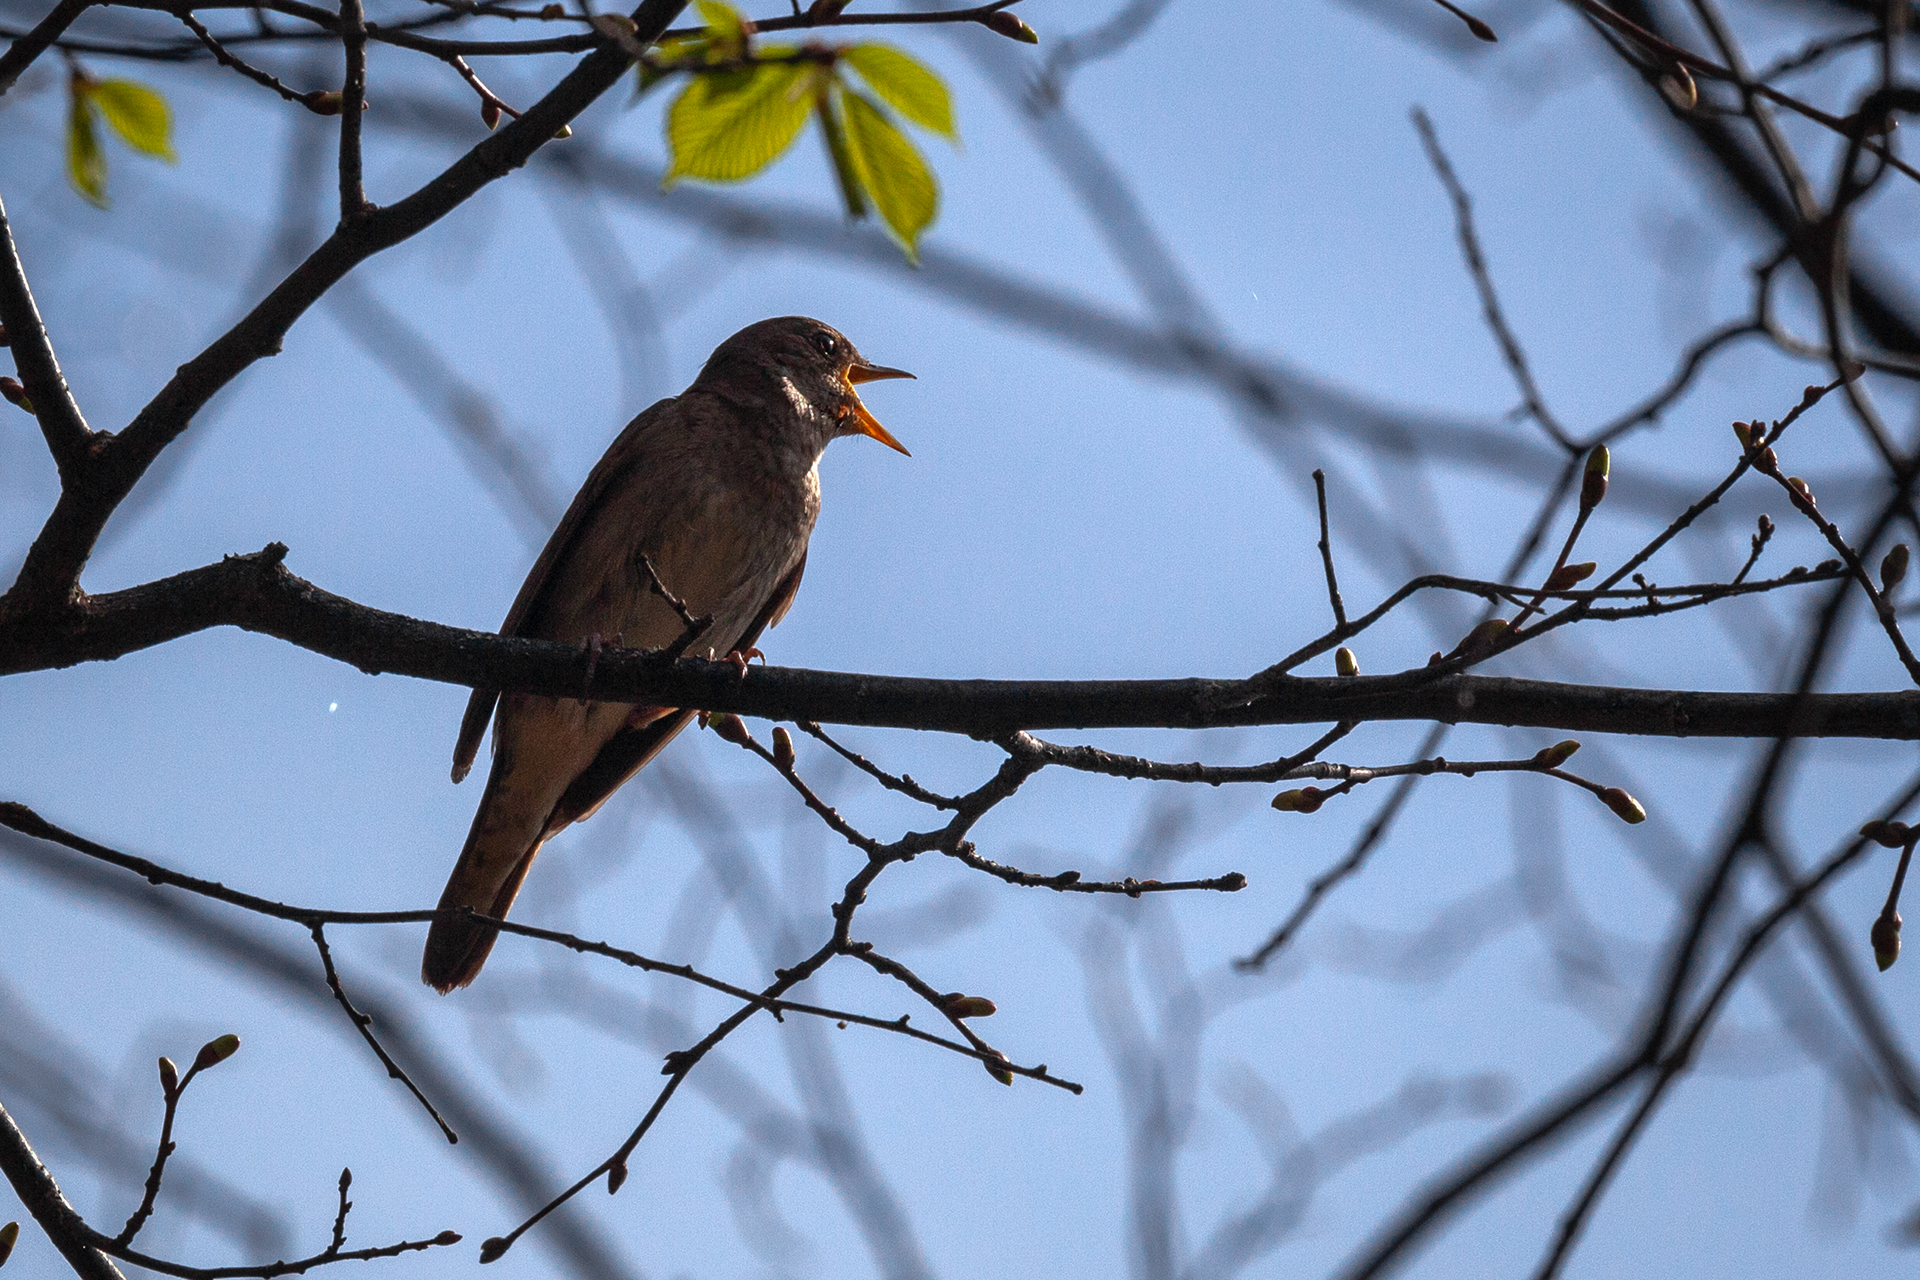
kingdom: Animalia
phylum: Chordata
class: Aves
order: Passeriformes
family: Muscicapidae
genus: Luscinia
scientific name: Luscinia luscinia
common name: Thrush nightingale
